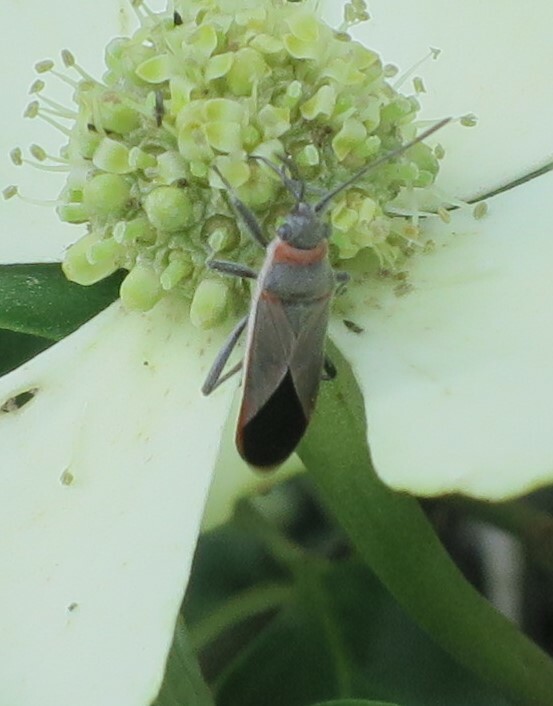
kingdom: Animalia
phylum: Arthropoda
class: Insecta
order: Hemiptera
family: Lygaeidae
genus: Arocatus
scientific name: Arocatus rusticus
